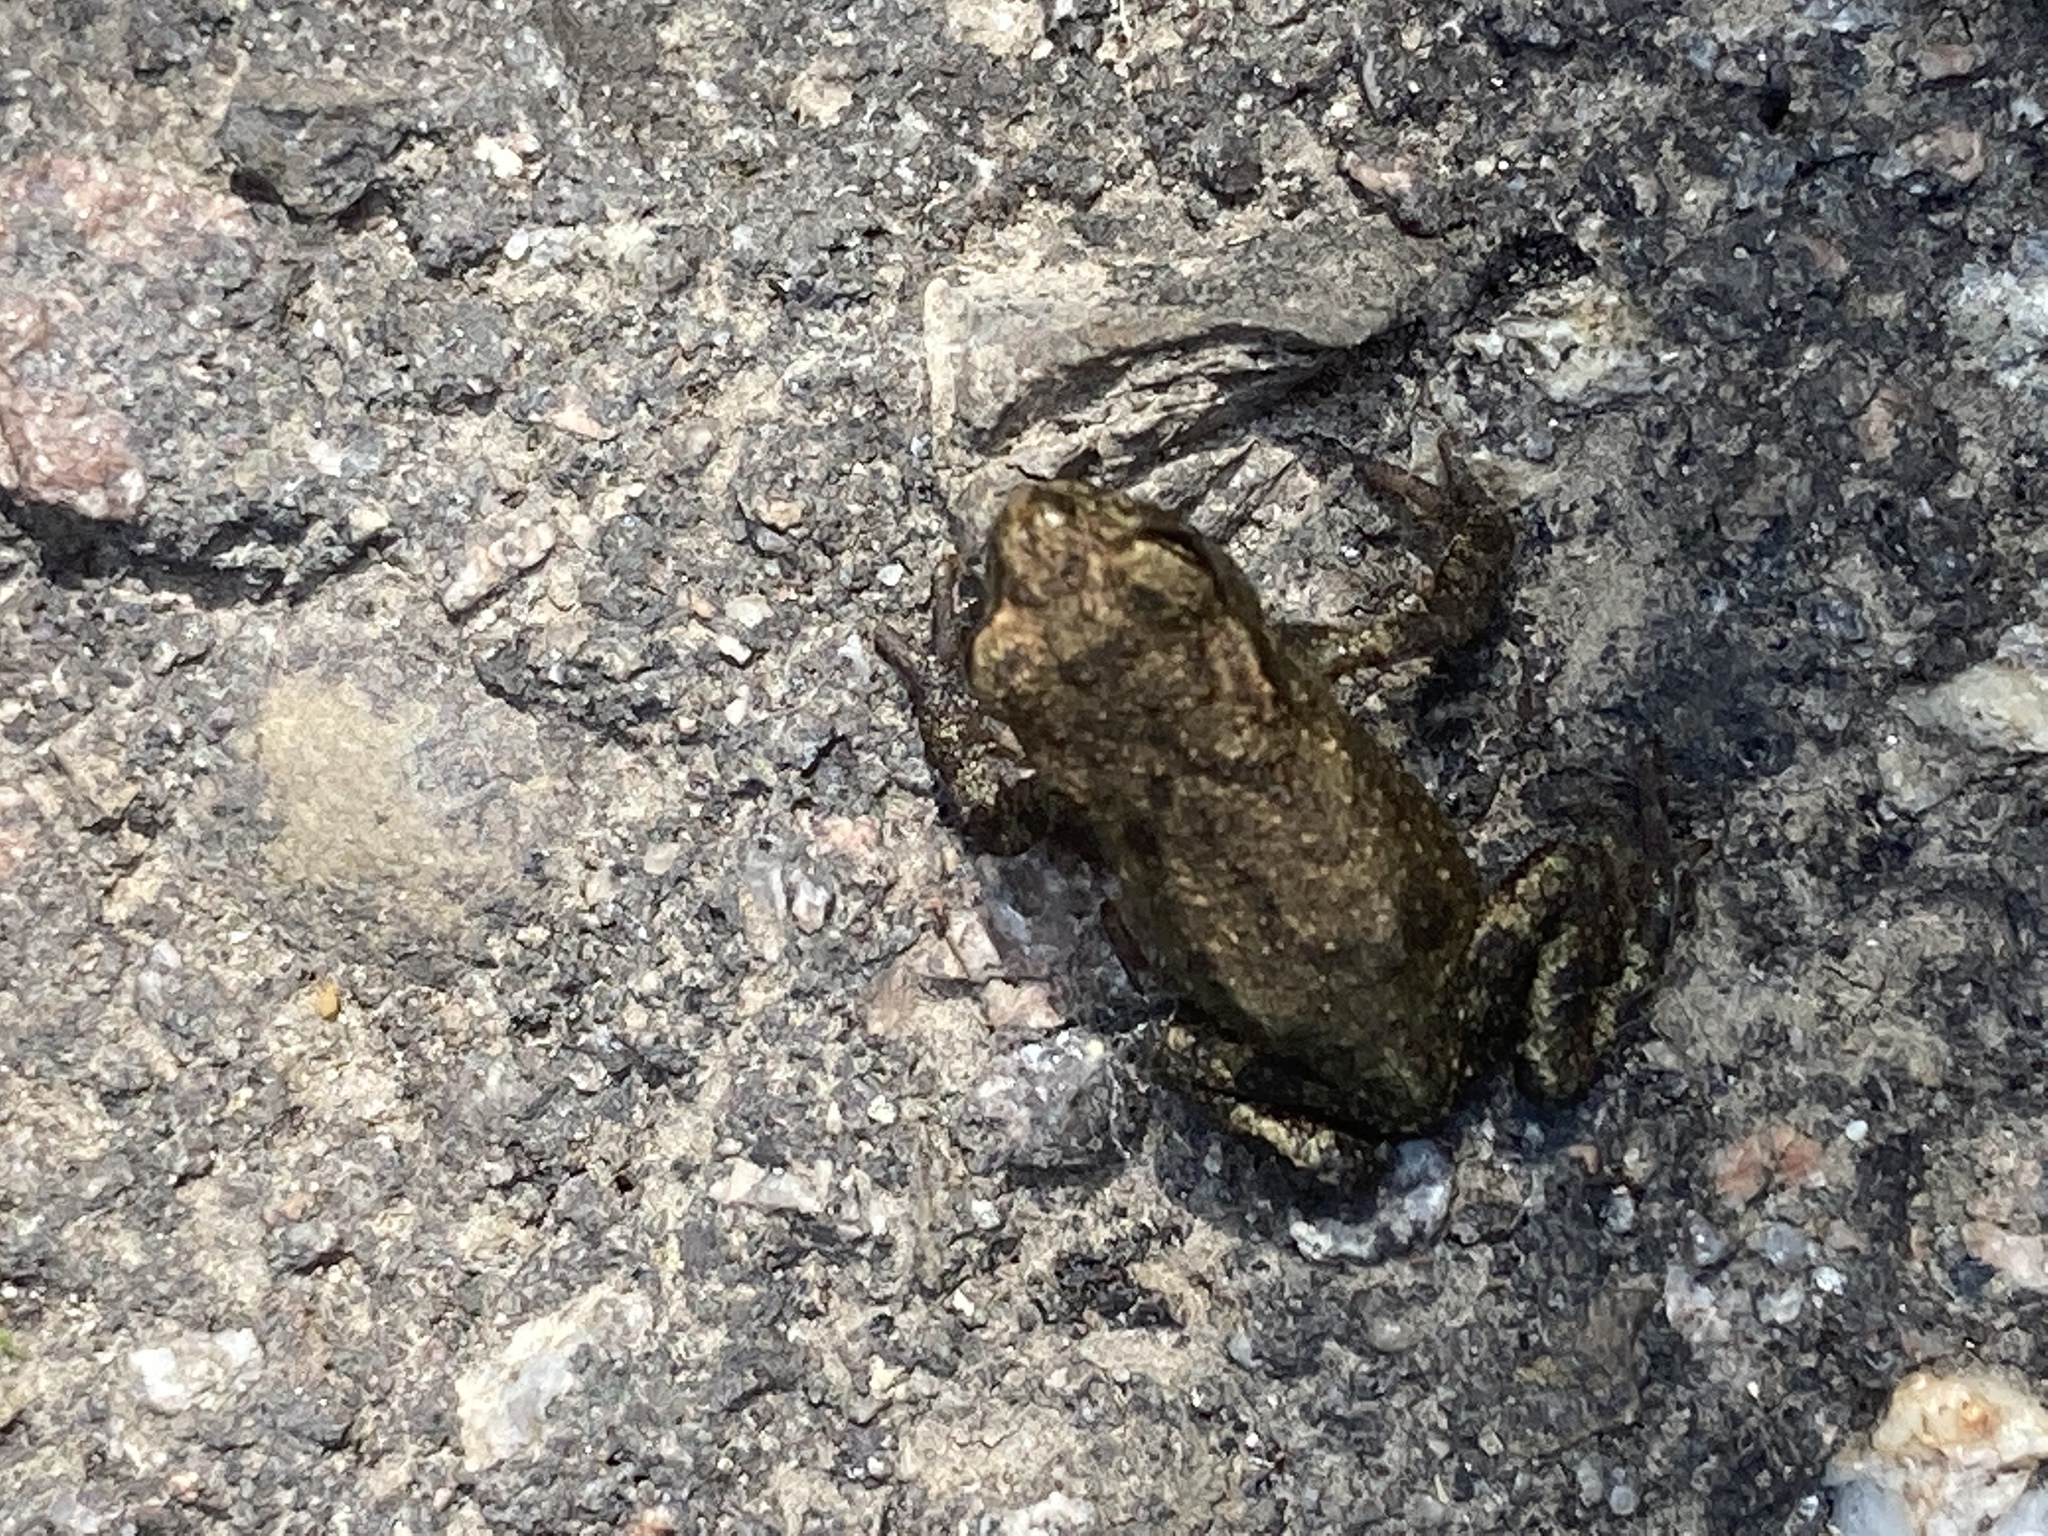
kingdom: Animalia
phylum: Chordata
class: Amphibia
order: Anura
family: Bufonidae
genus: Bufo
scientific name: Bufo bufo
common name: Common toad
